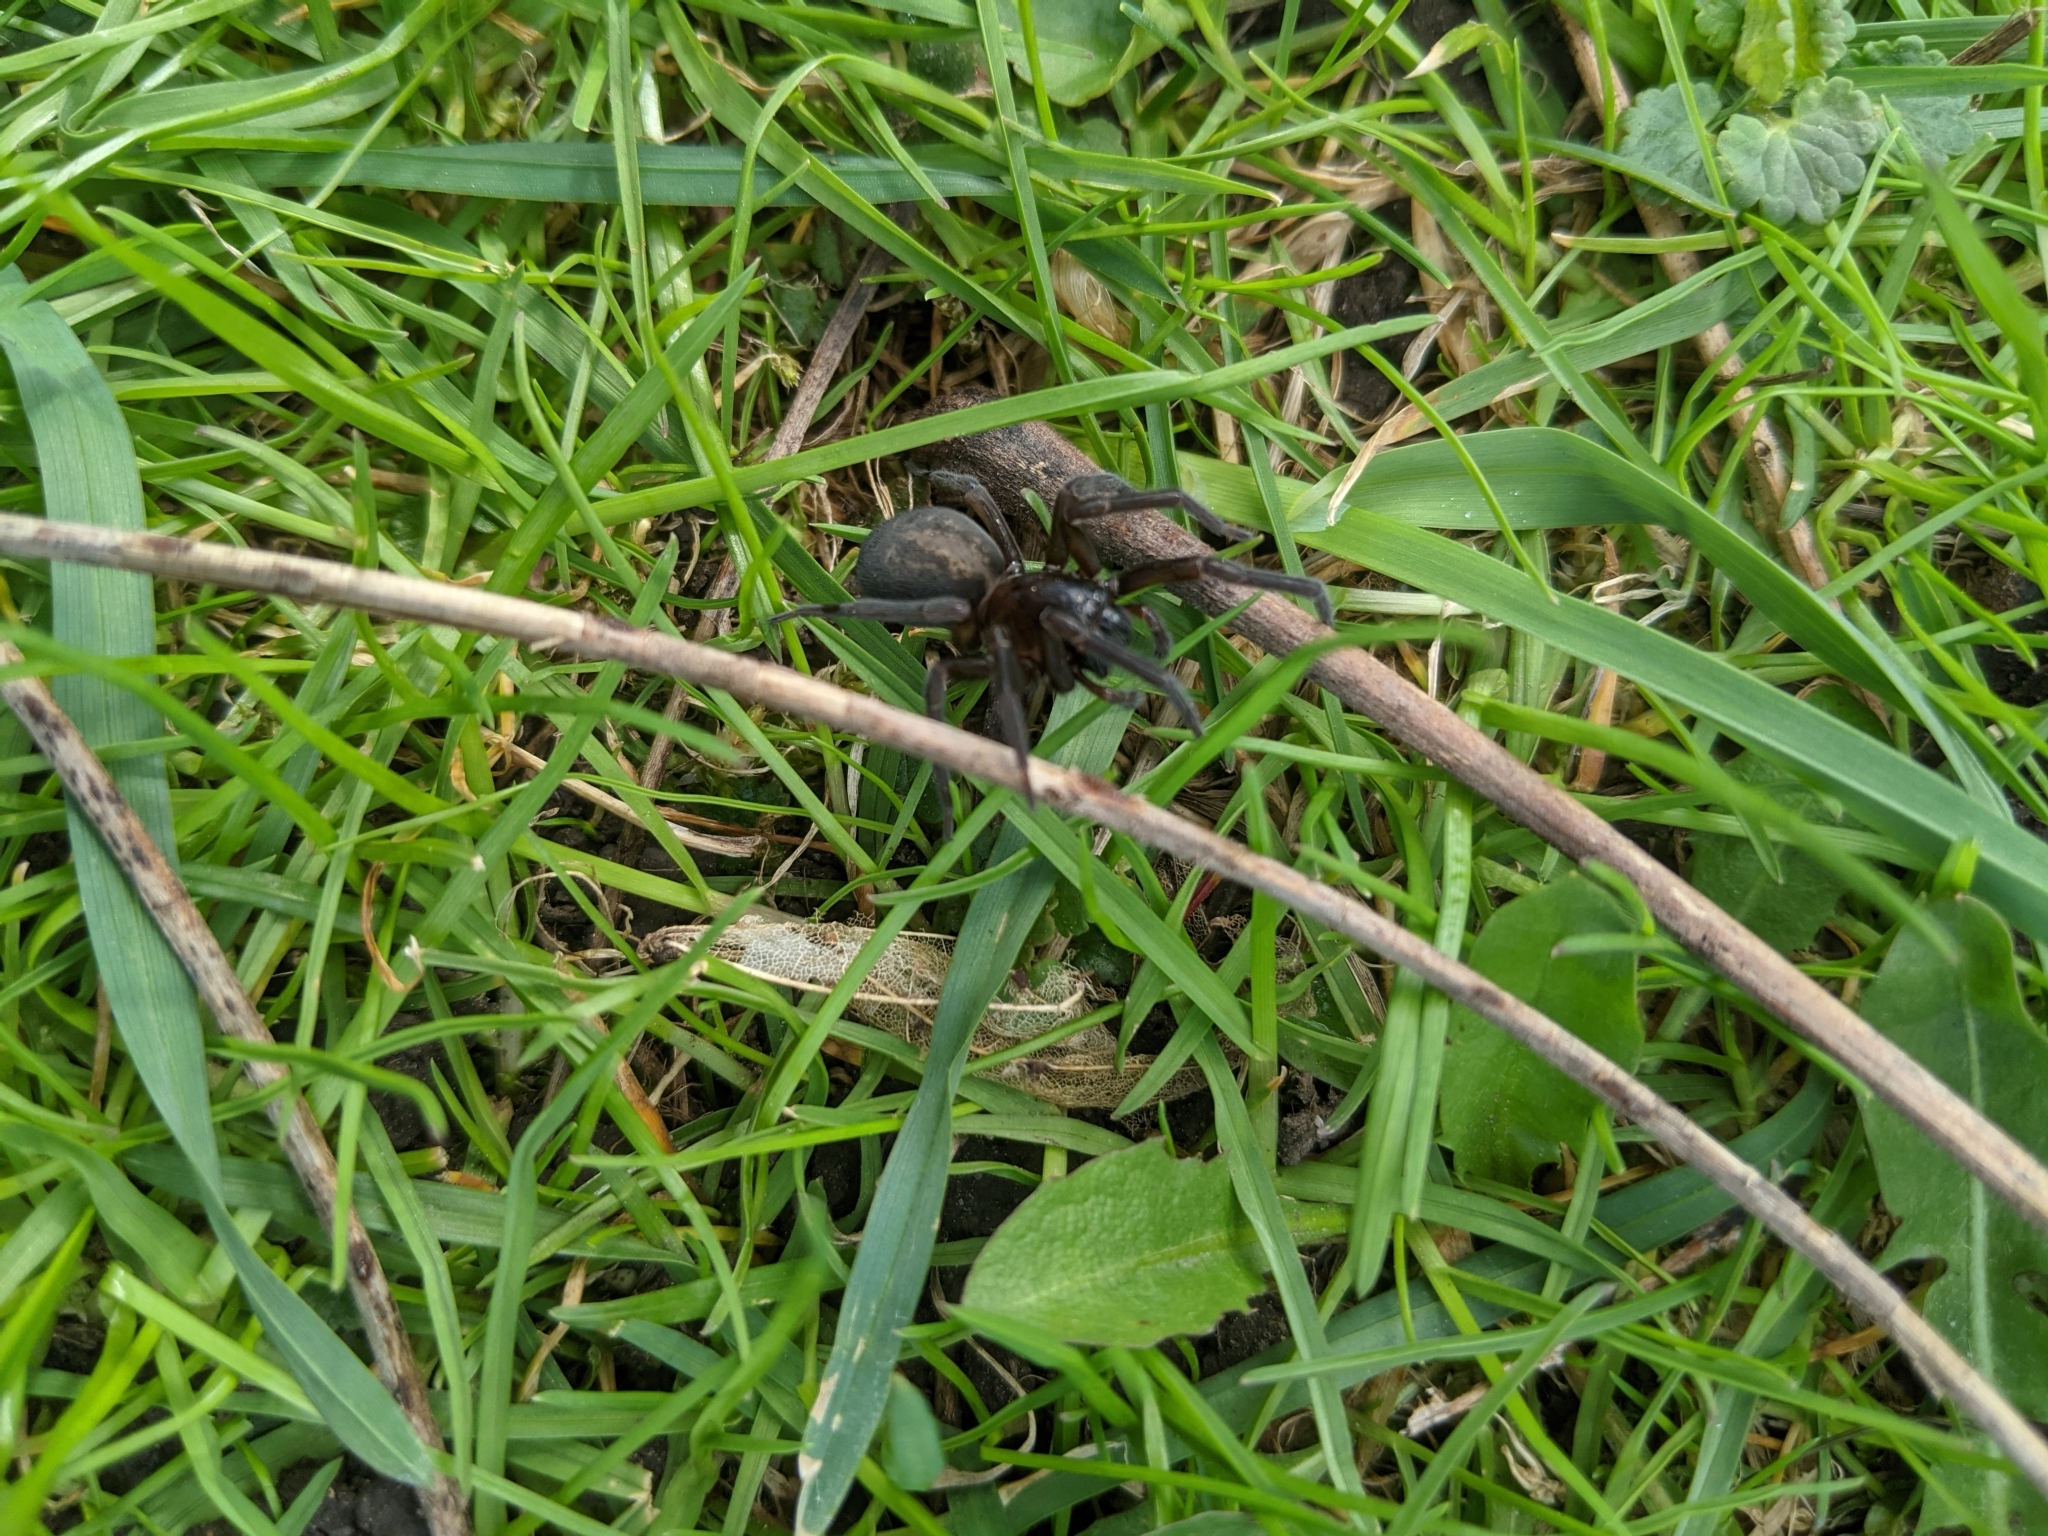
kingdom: Animalia
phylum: Arthropoda
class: Arachnida
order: Araneae
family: Amaurobiidae
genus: Amaurobius
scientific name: Amaurobius ferox
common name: Black laceweaver
